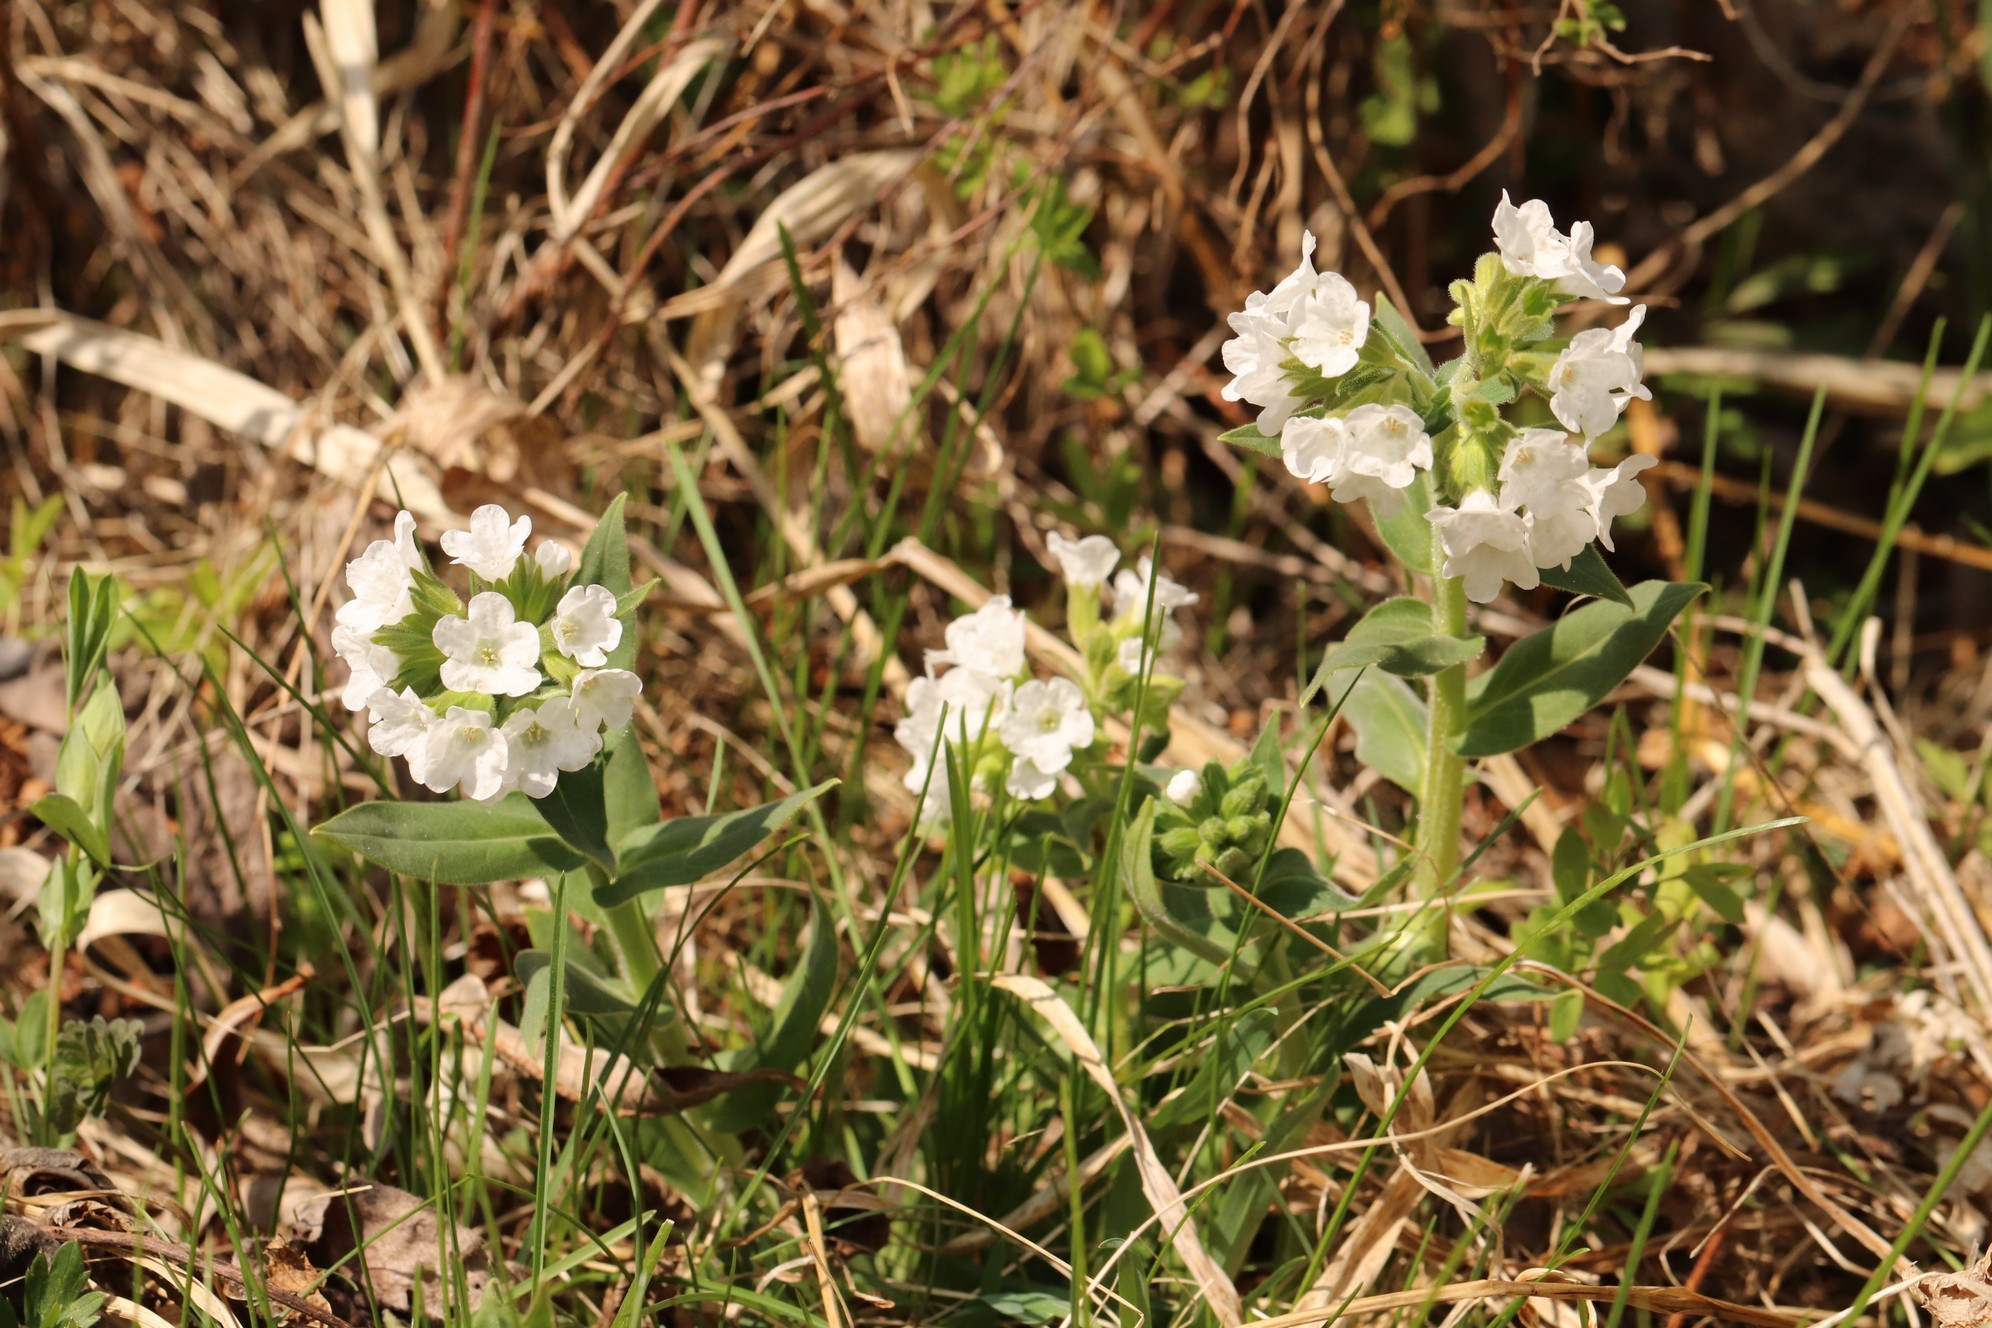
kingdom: Plantae
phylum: Tracheophyta
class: Magnoliopsida
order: Boraginales
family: Boraginaceae
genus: Pulmonaria
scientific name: Pulmonaria mollis
